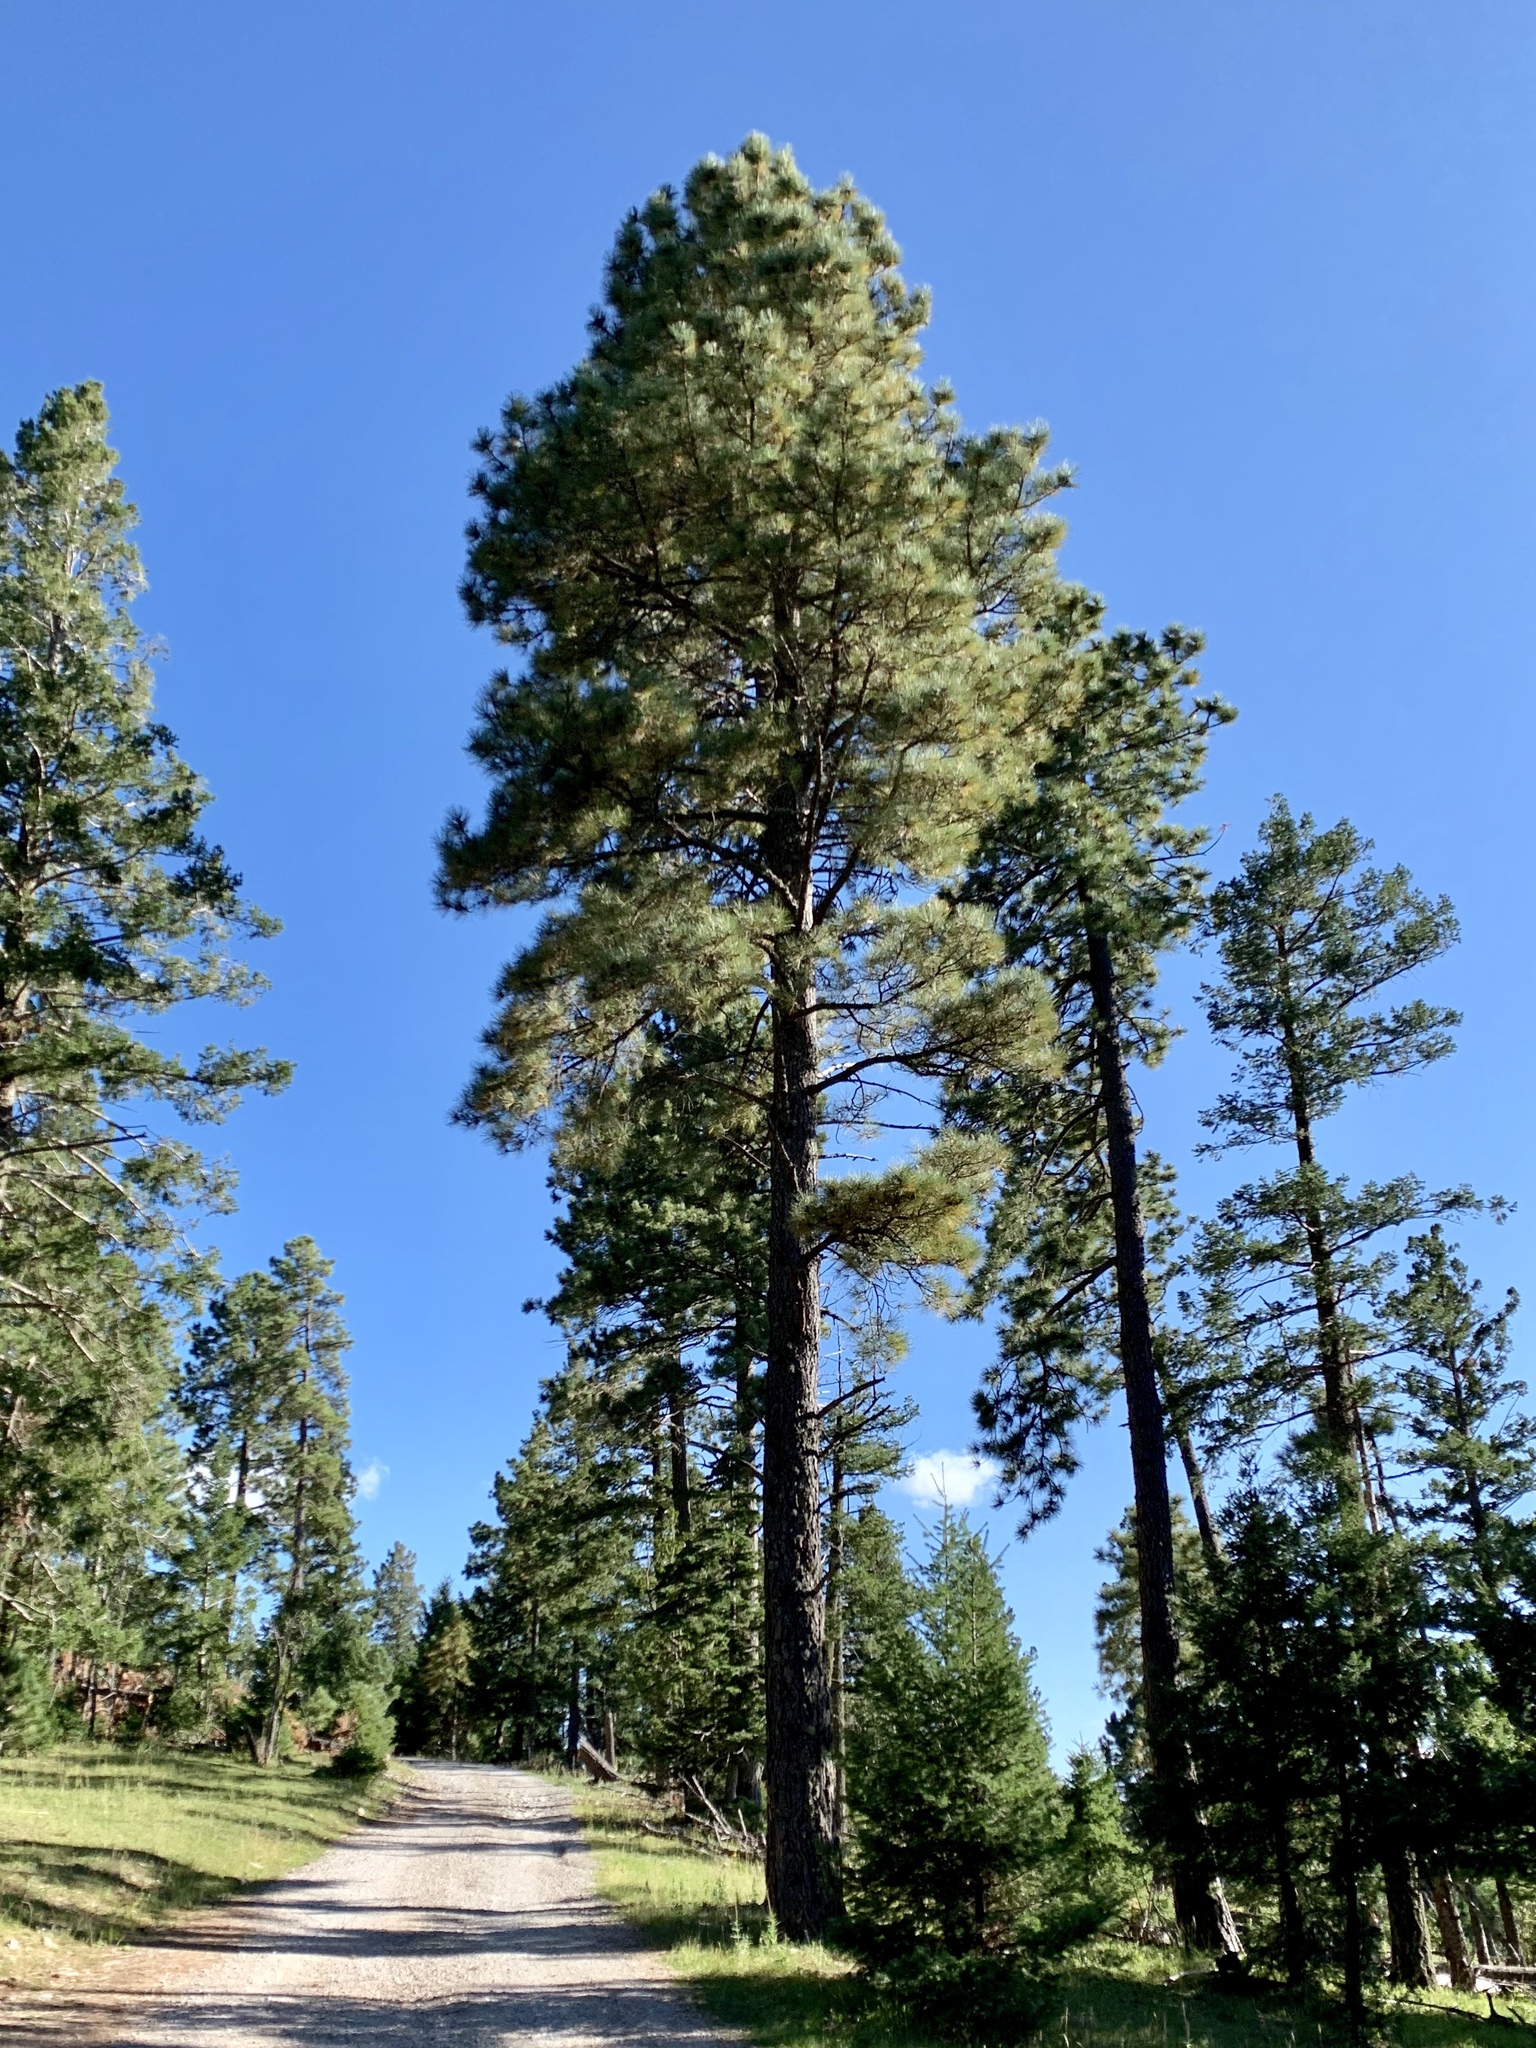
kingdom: Plantae
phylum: Tracheophyta
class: Pinopsida
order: Pinales
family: Pinaceae
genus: Pinus
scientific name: Pinus ponderosa
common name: Western yellow-pine
